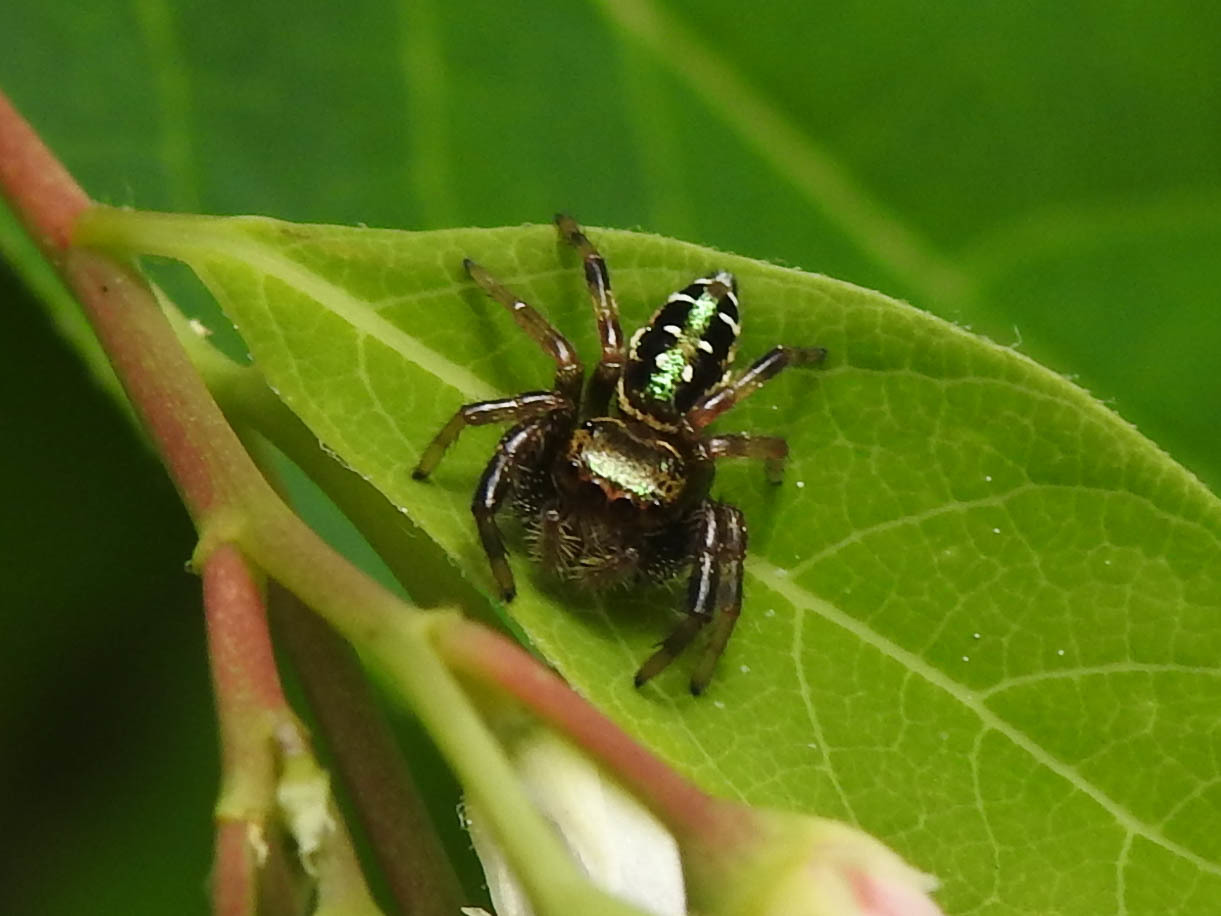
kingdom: Animalia
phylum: Arthropoda
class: Arachnida
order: Araneae
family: Salticidae
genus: Paraphidippus
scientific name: Paraphidippus aurantius
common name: Jumping spiders
